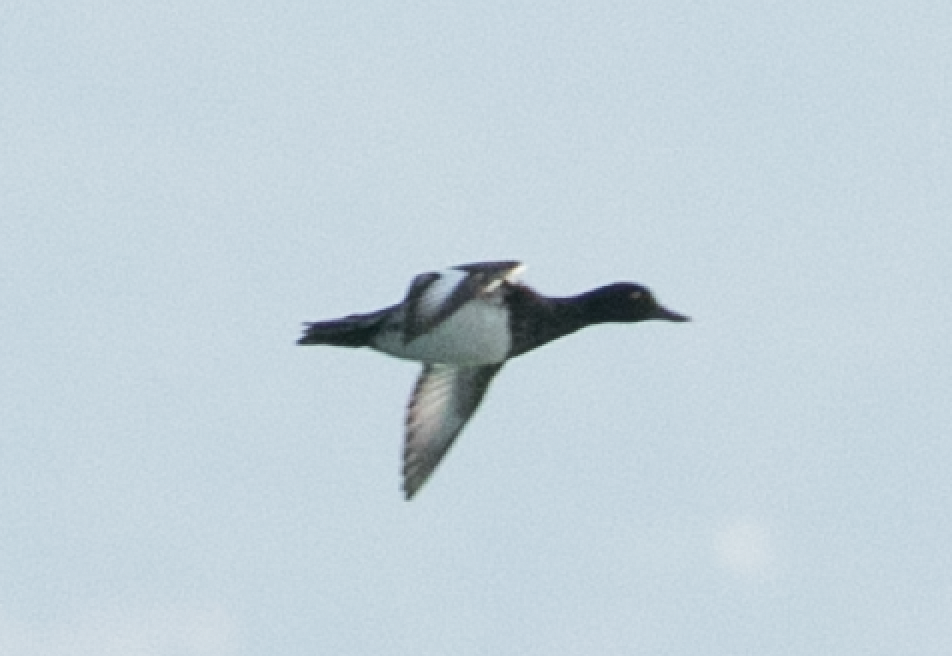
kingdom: Animalia
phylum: Chordata
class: Aves
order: Anseriformes
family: Anatidae
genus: Aythya
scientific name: Aythya fuligula
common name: Tufted duck
